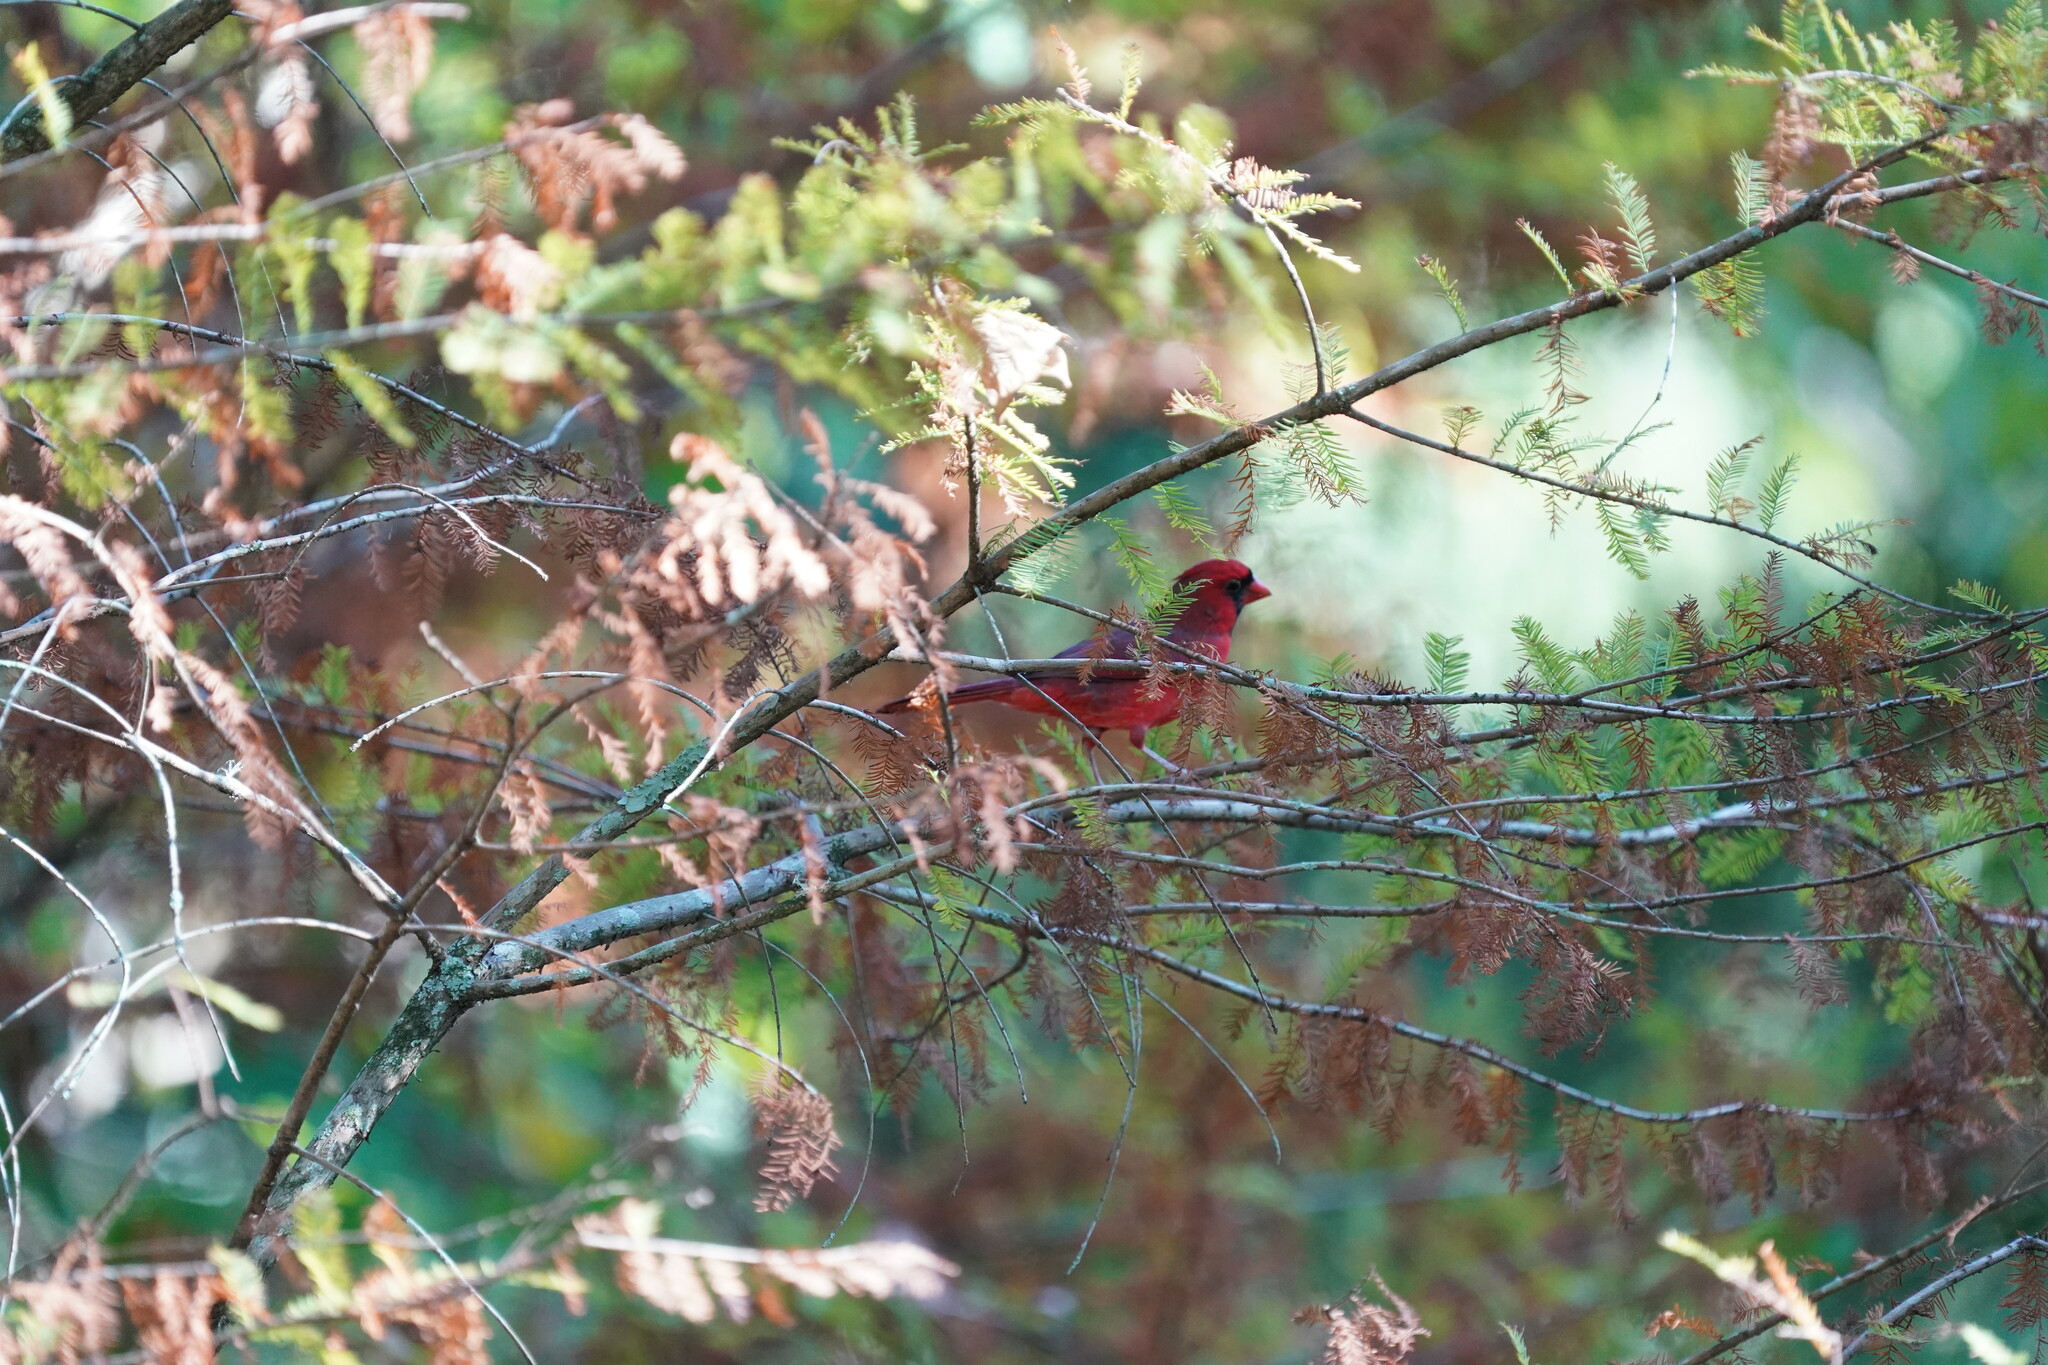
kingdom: Animalia
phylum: Chordata
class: Aves
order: Passeriformes
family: Cardinalidae
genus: Cardinalis
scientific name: Cardinalis cardinalis
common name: Northern cardinal
